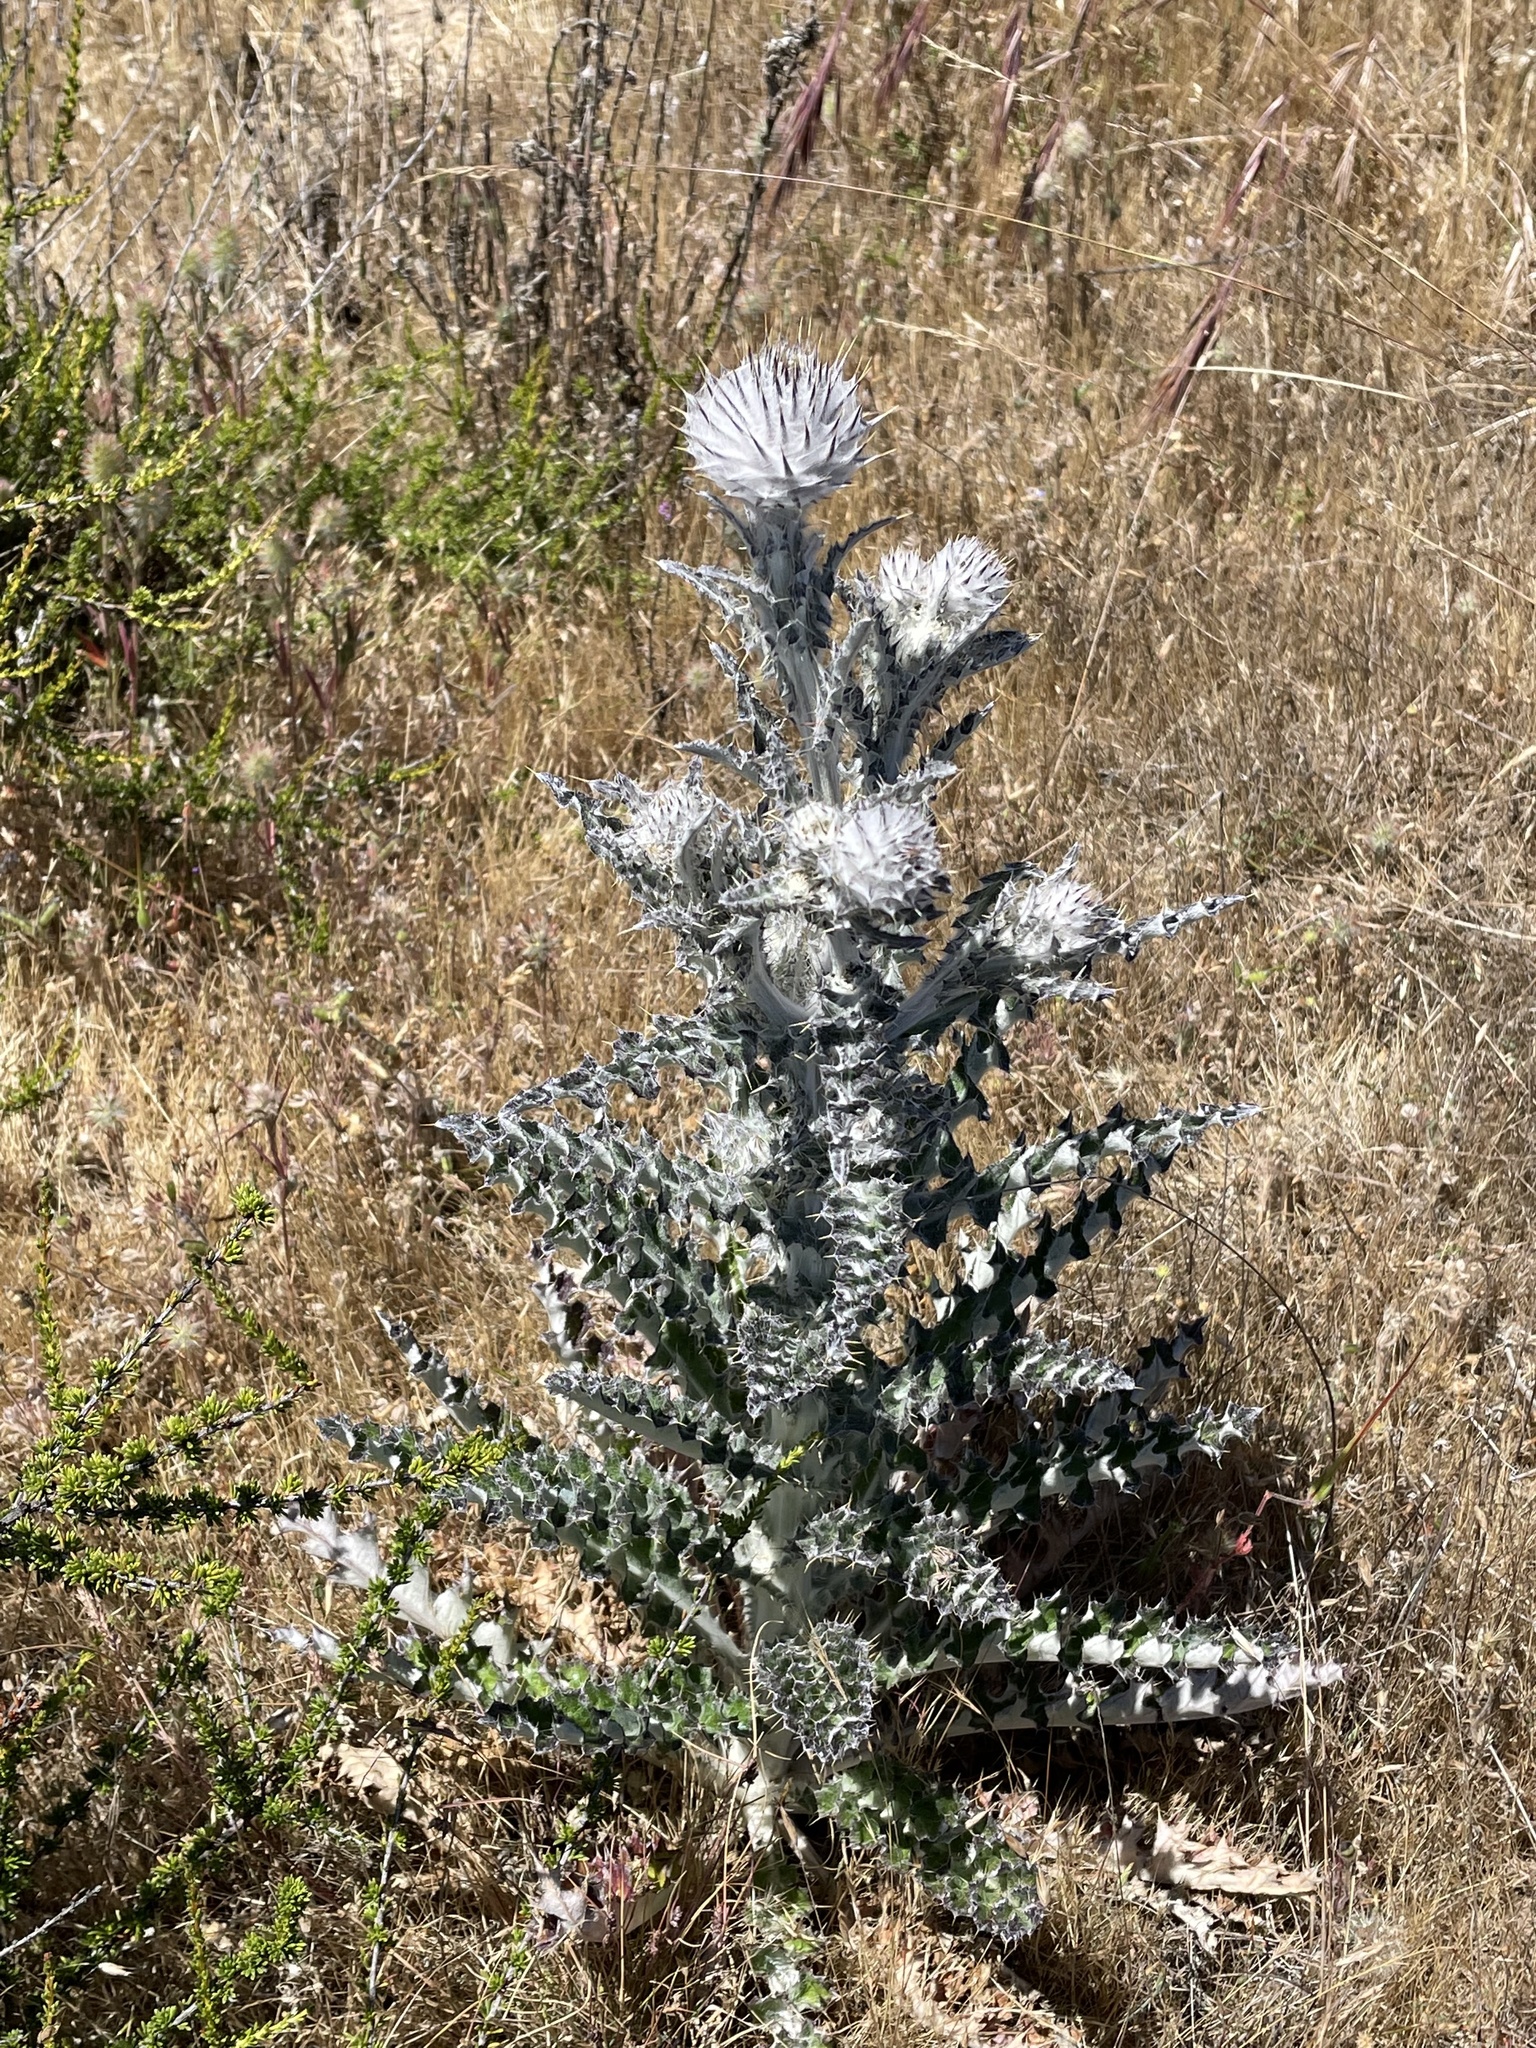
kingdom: Plantae
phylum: Tracheophyta
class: Magnoliopsida
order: Asterales
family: Asteraceae
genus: Cirsium
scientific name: Cirsium occidentale
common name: Western thistle
